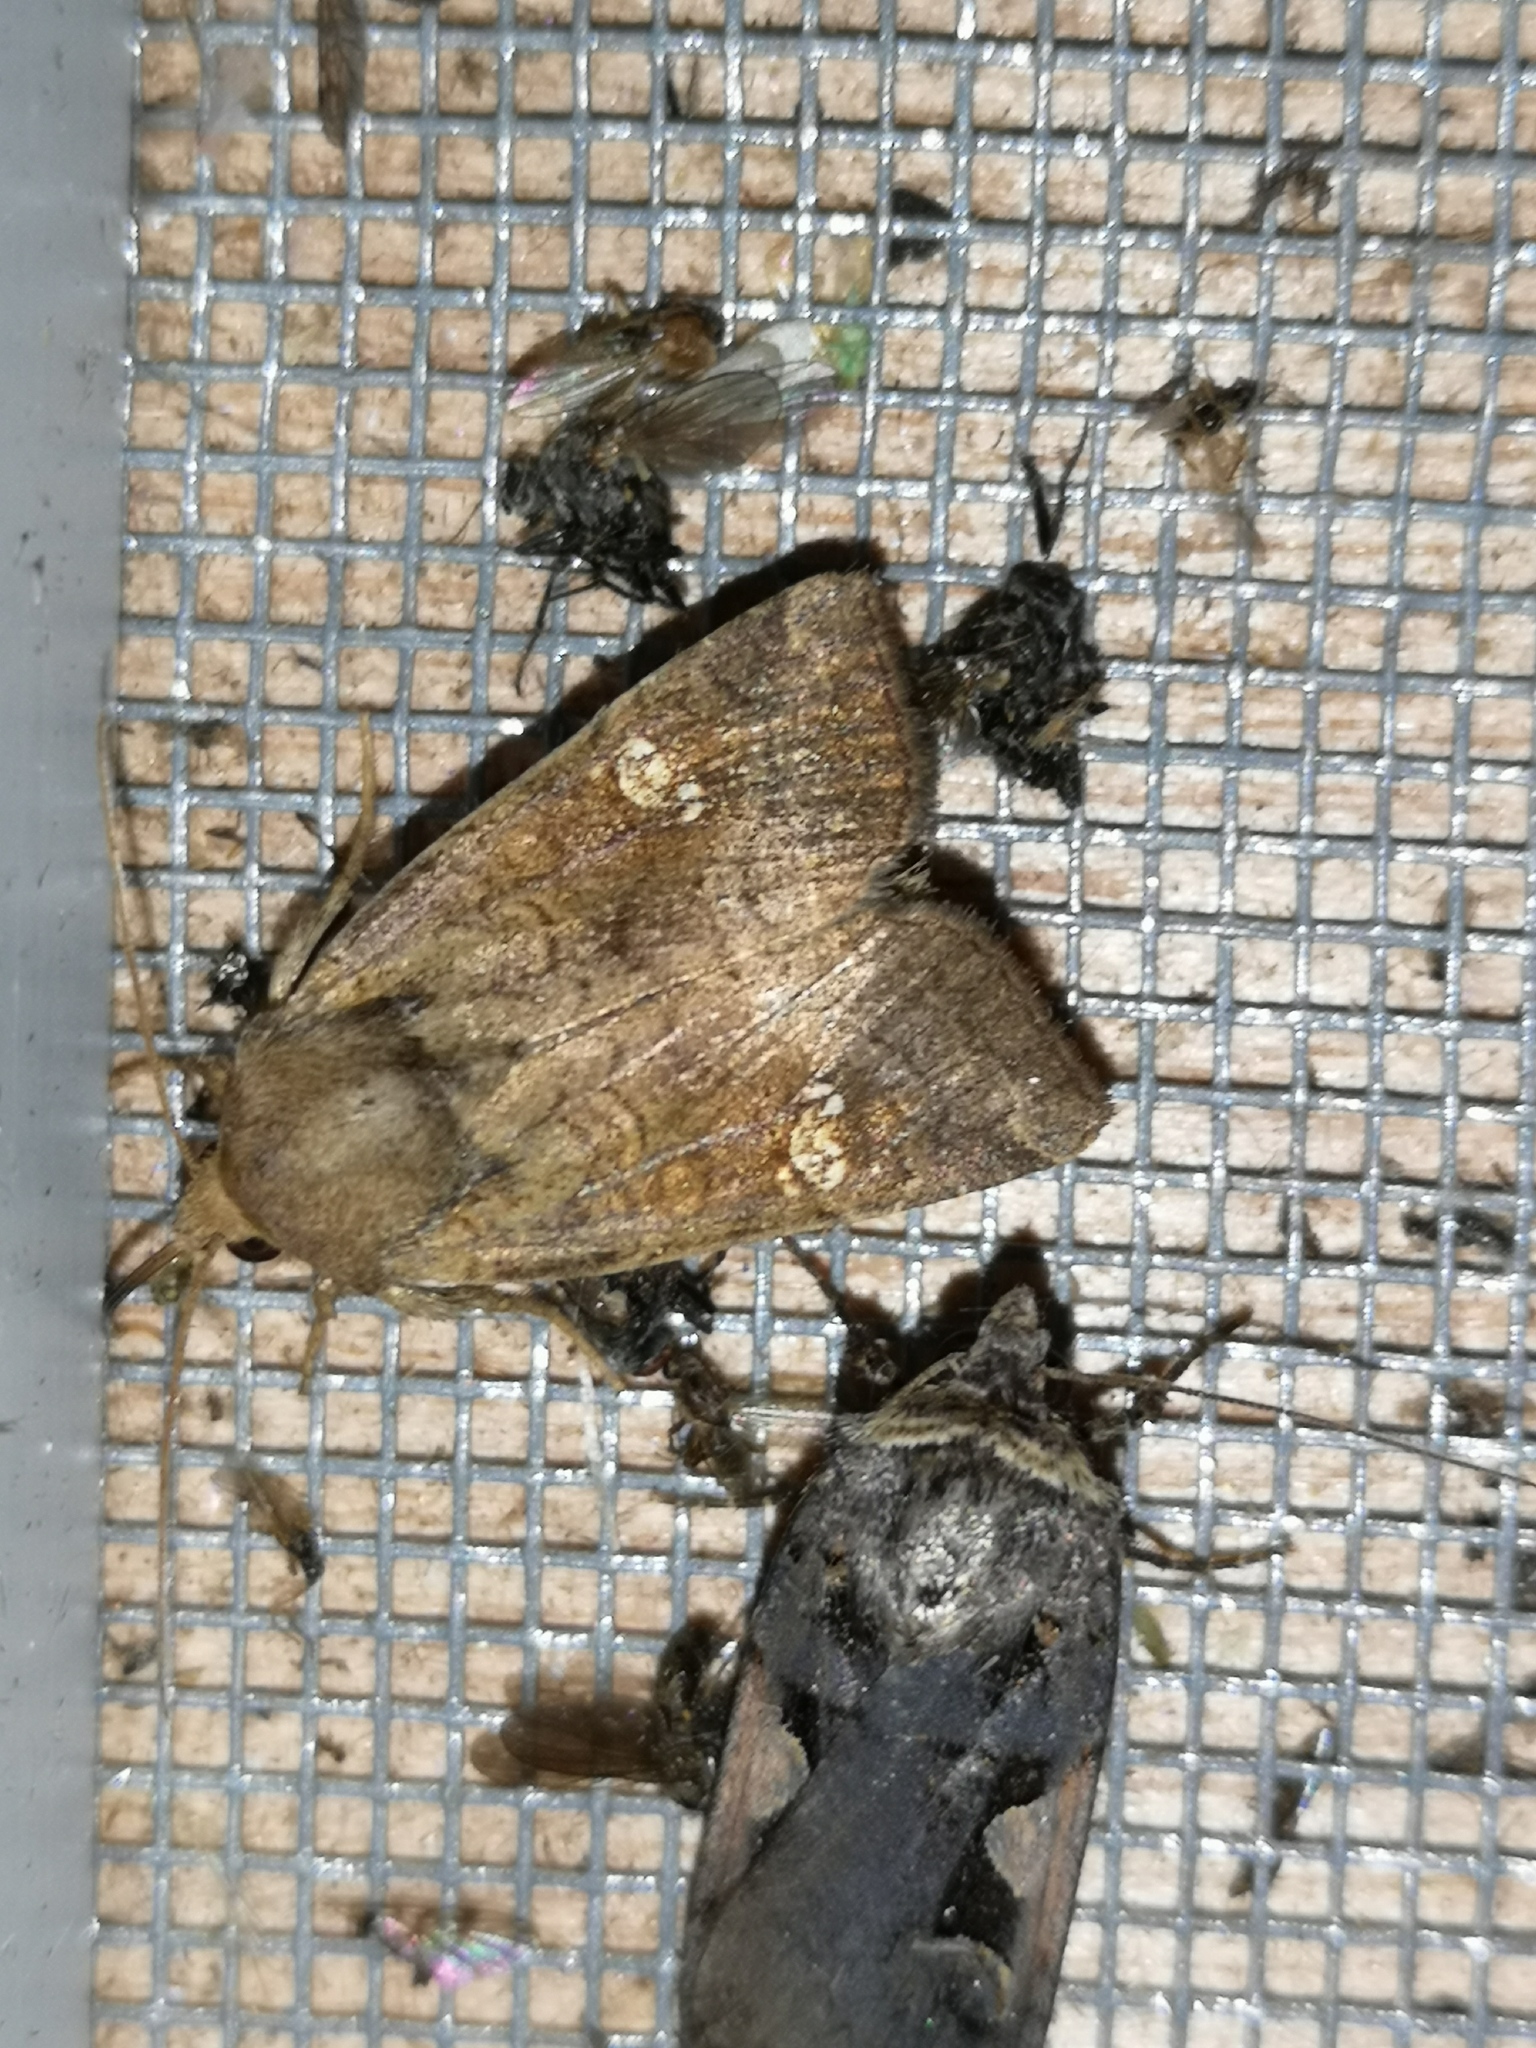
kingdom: Animalia
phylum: Arthropoda
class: Insecta
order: Lepidoptera
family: Noctuidae
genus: Amphipoea
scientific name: Amphipoea
